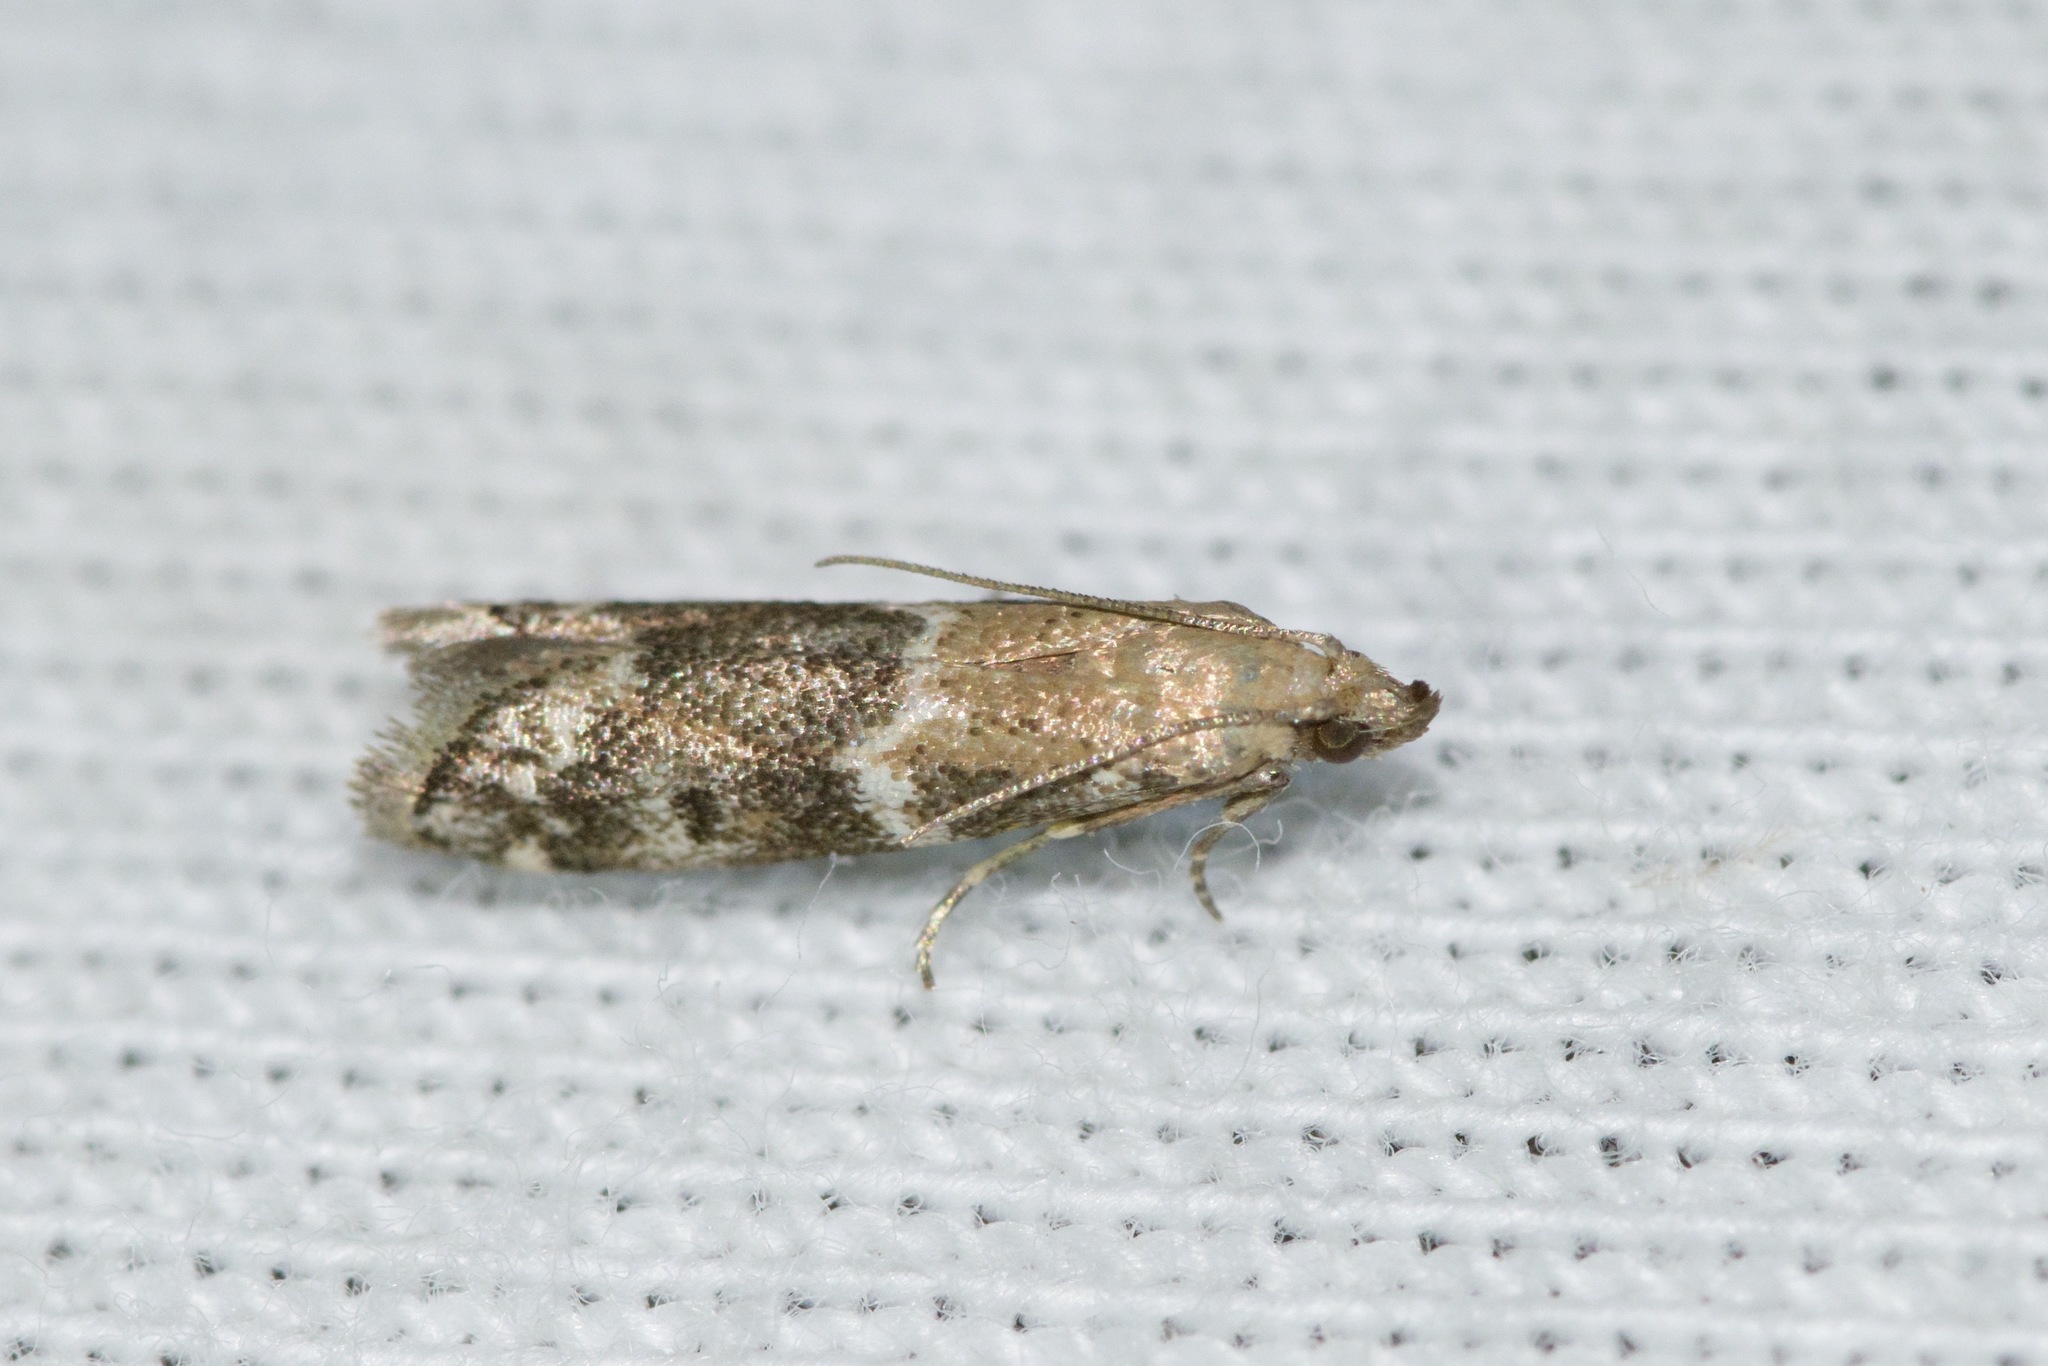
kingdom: Animalia
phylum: Arthropoda
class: Insecta
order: Lepidoptera
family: Pyralidae
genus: Vitula
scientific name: Vitula broweri
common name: Brower's vitula moth
